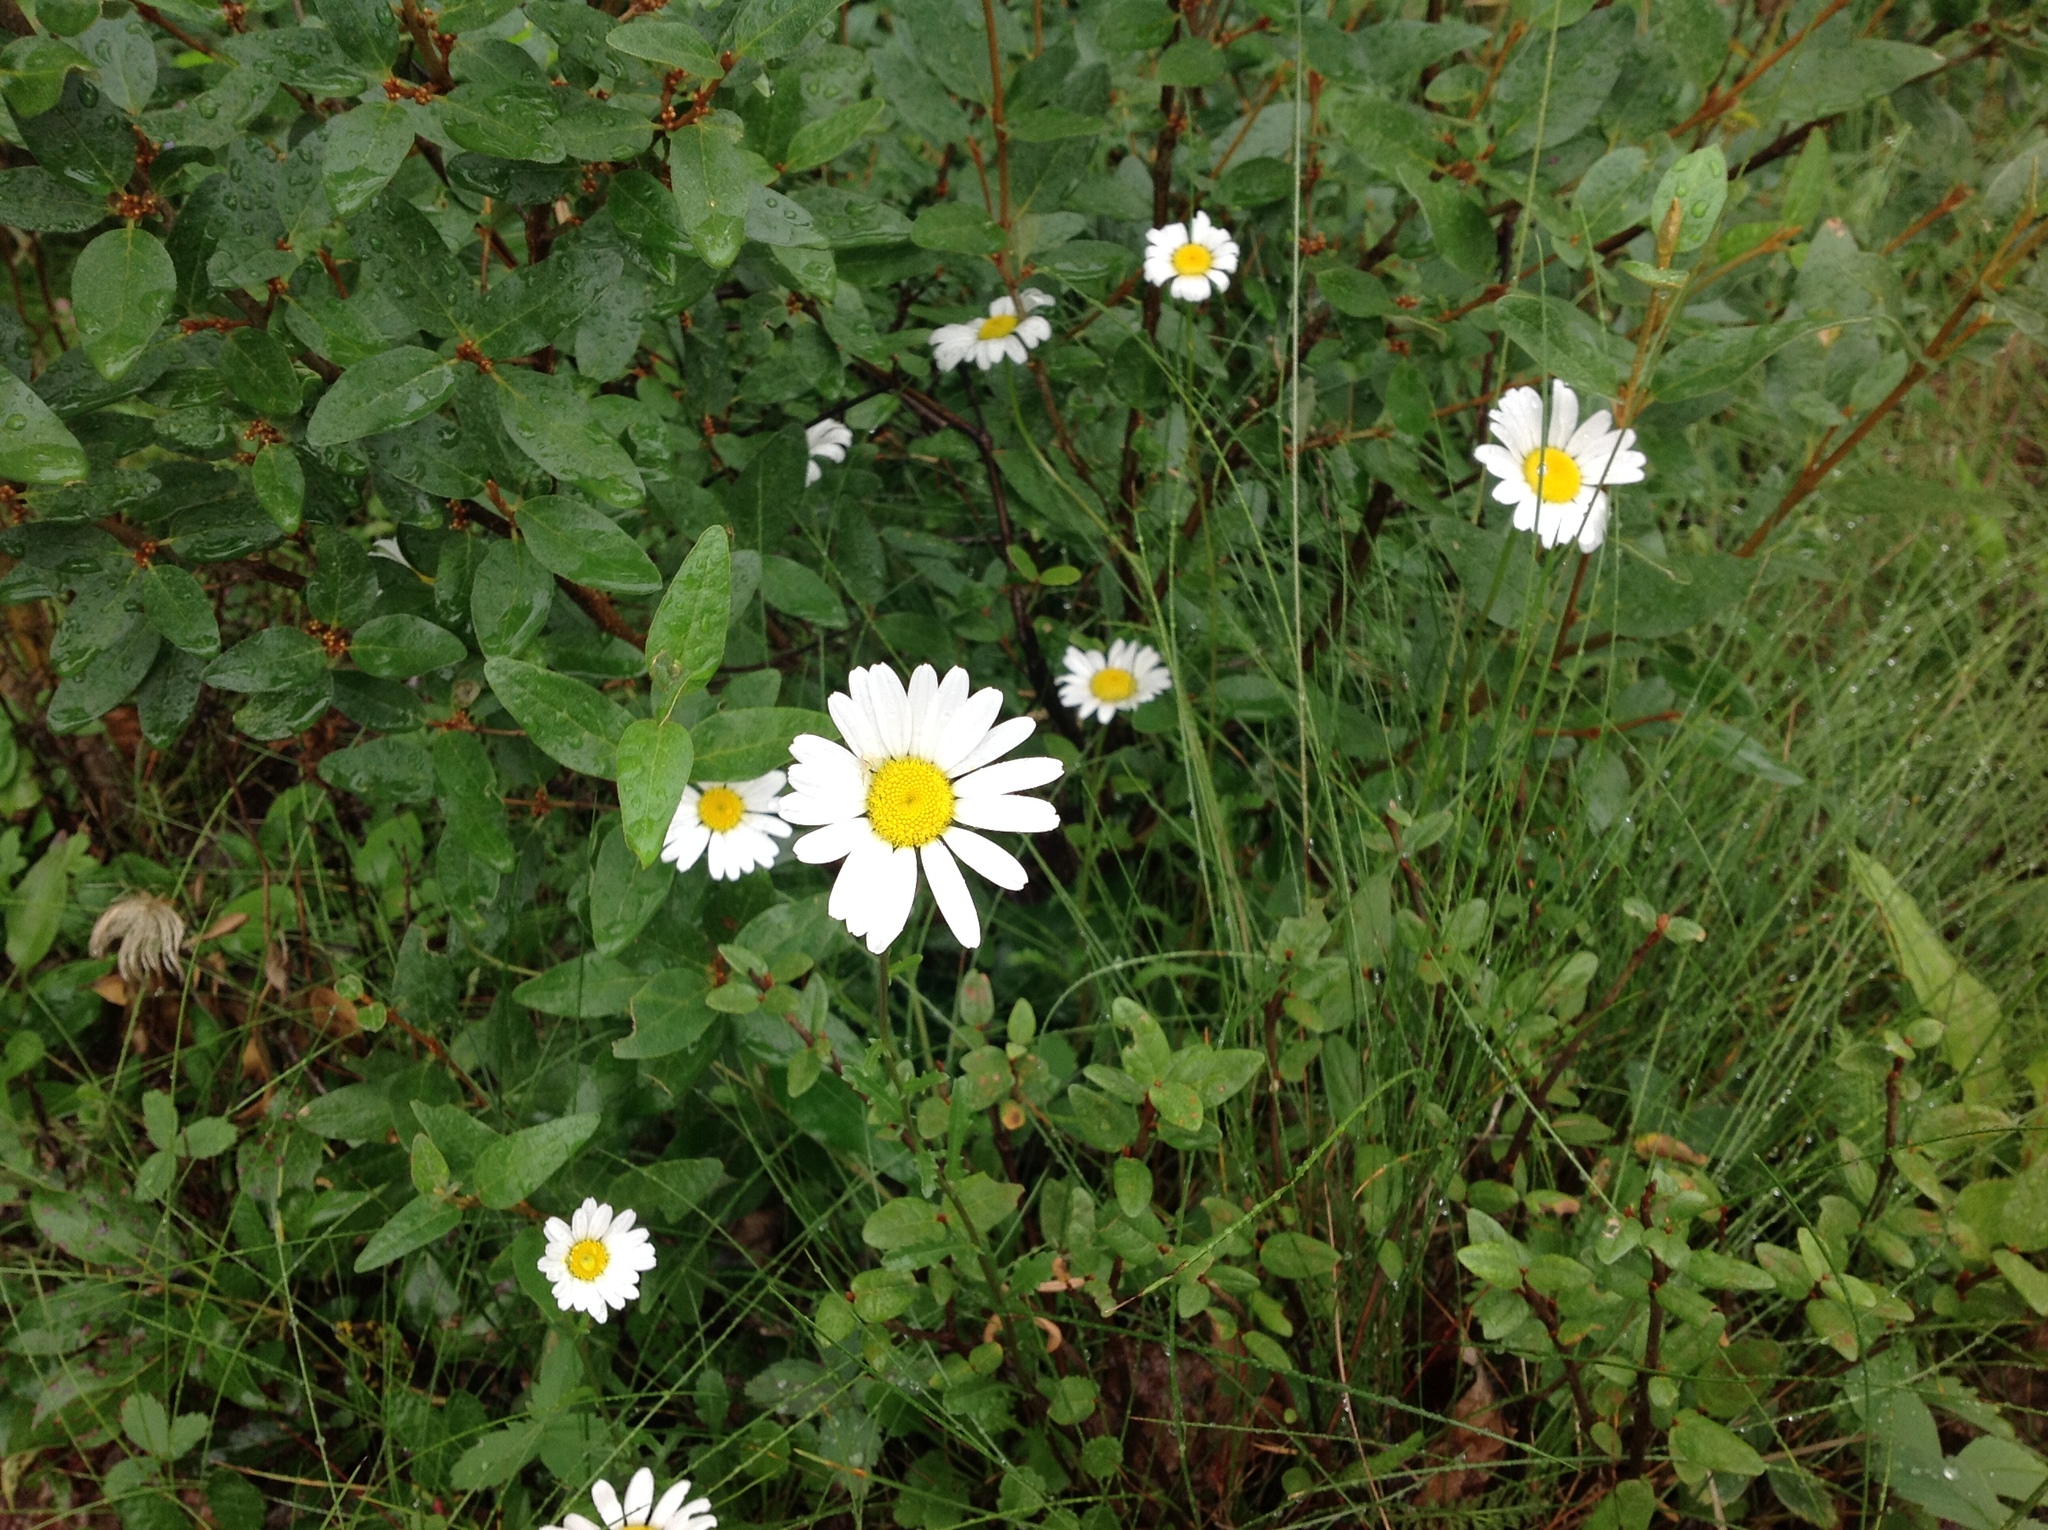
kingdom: Plantae
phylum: Tracheophyta
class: Magnoliopsida
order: Asterales
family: Asteraceae
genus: Leucanthemum
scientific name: Leucanthemum vulgare
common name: Oxeye daisy
